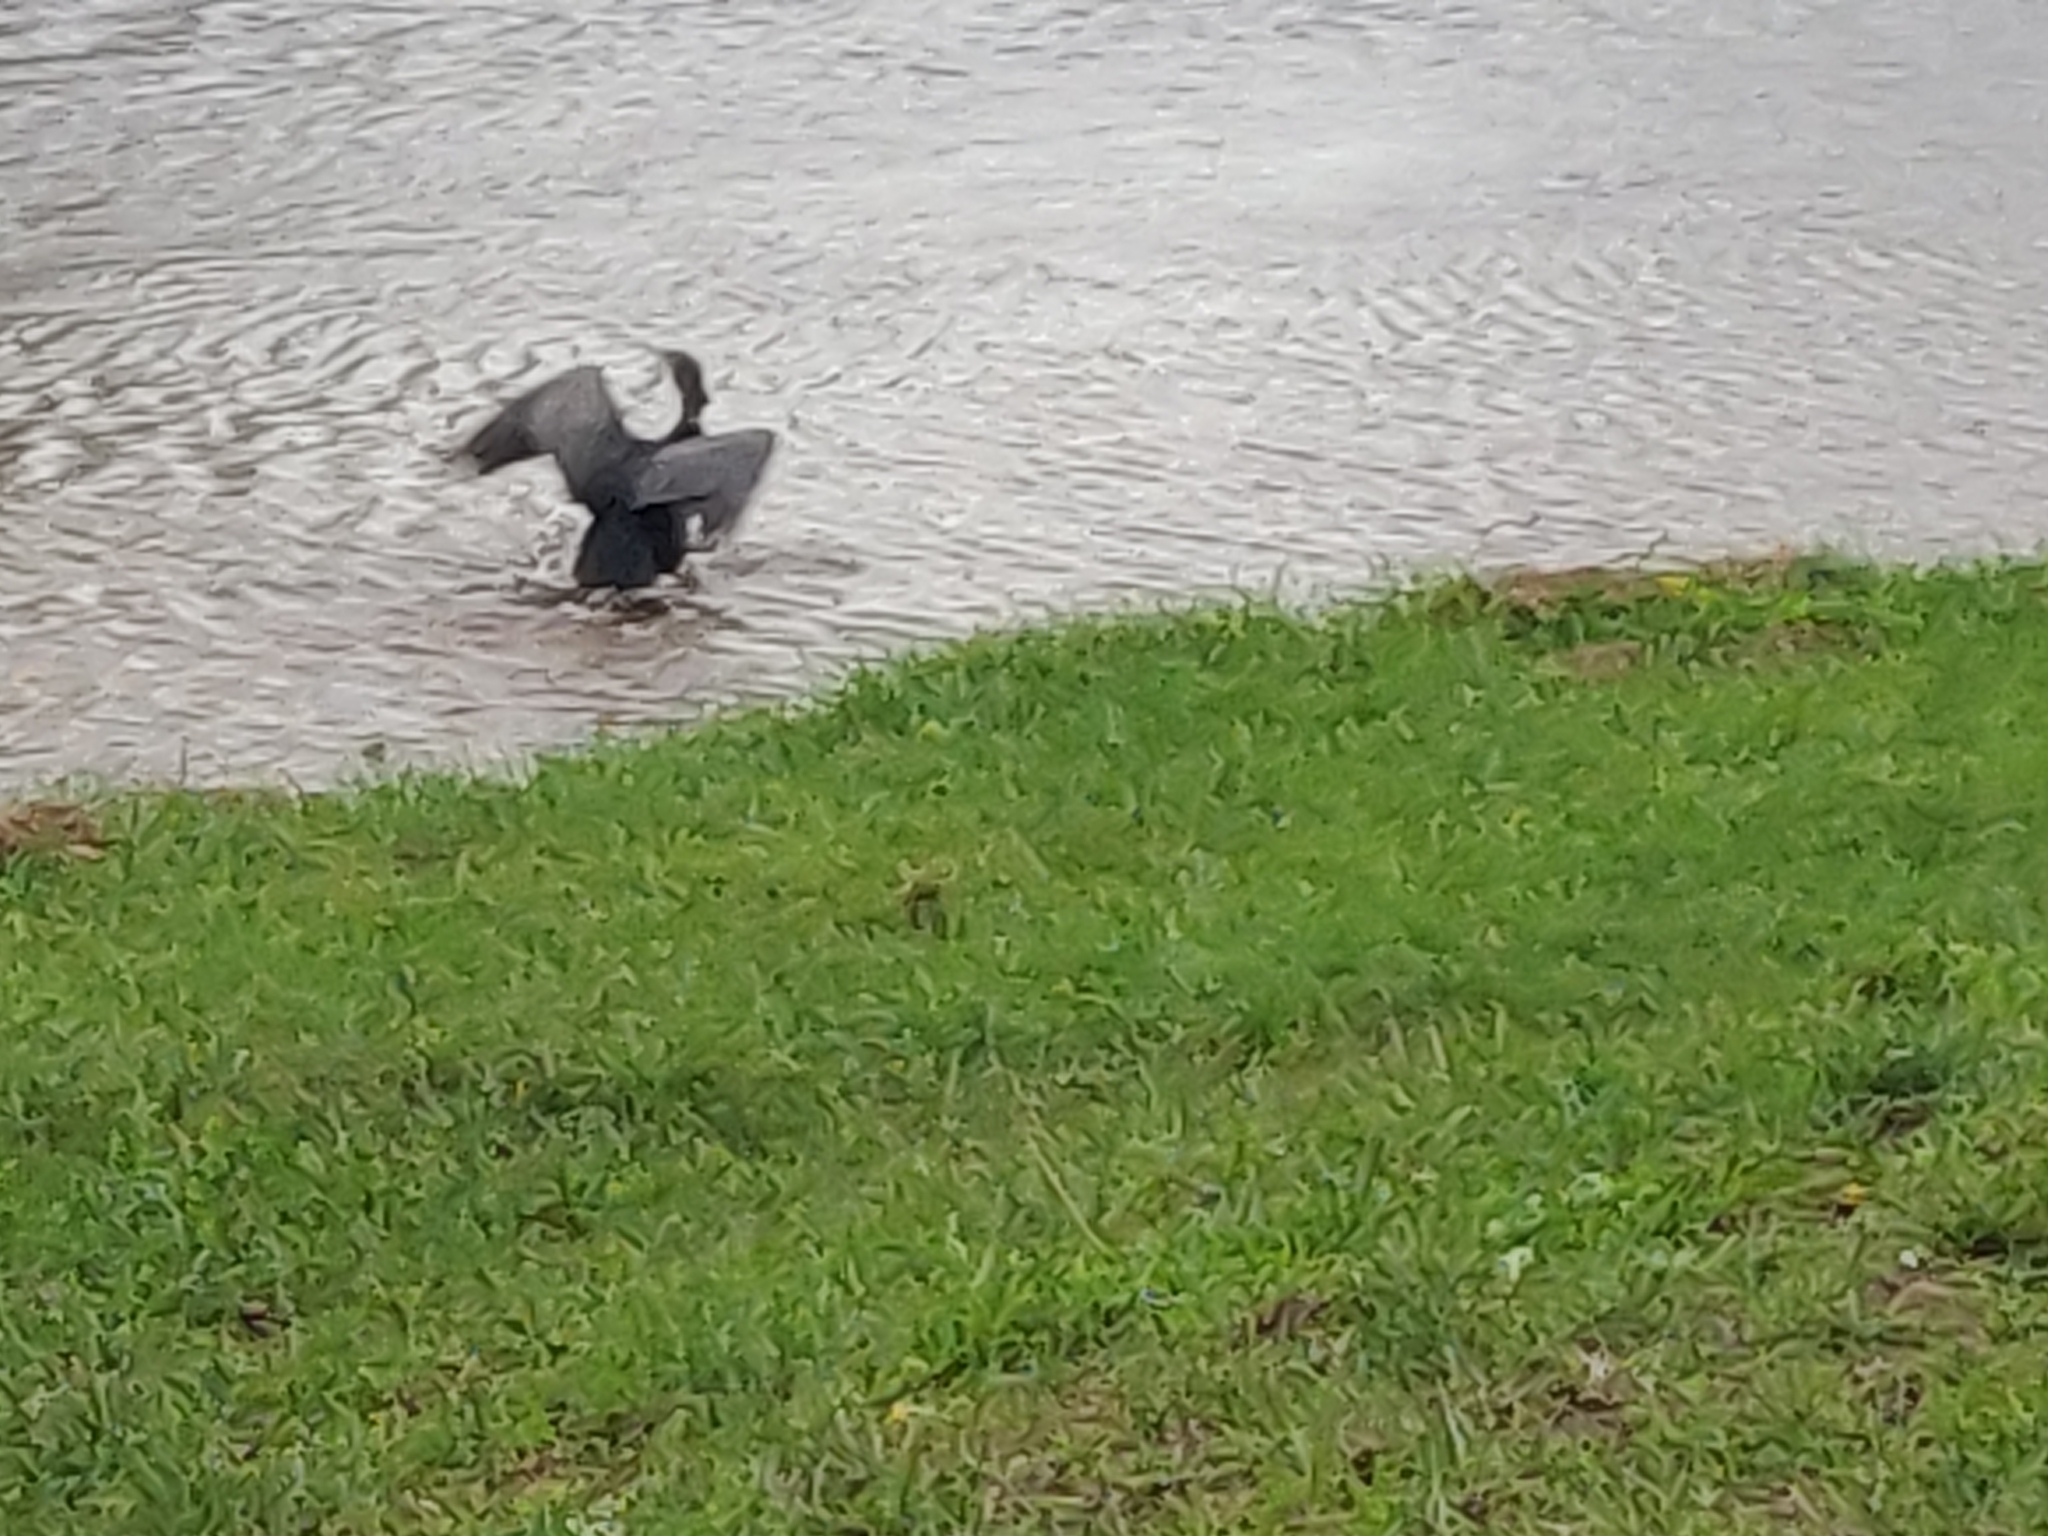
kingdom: Animalia
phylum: Chordata
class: Aves
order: Suliformes
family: Phalacrocoracidae
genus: Phalacrocorax
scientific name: Phalacrocorax carbo
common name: Great cormorant
